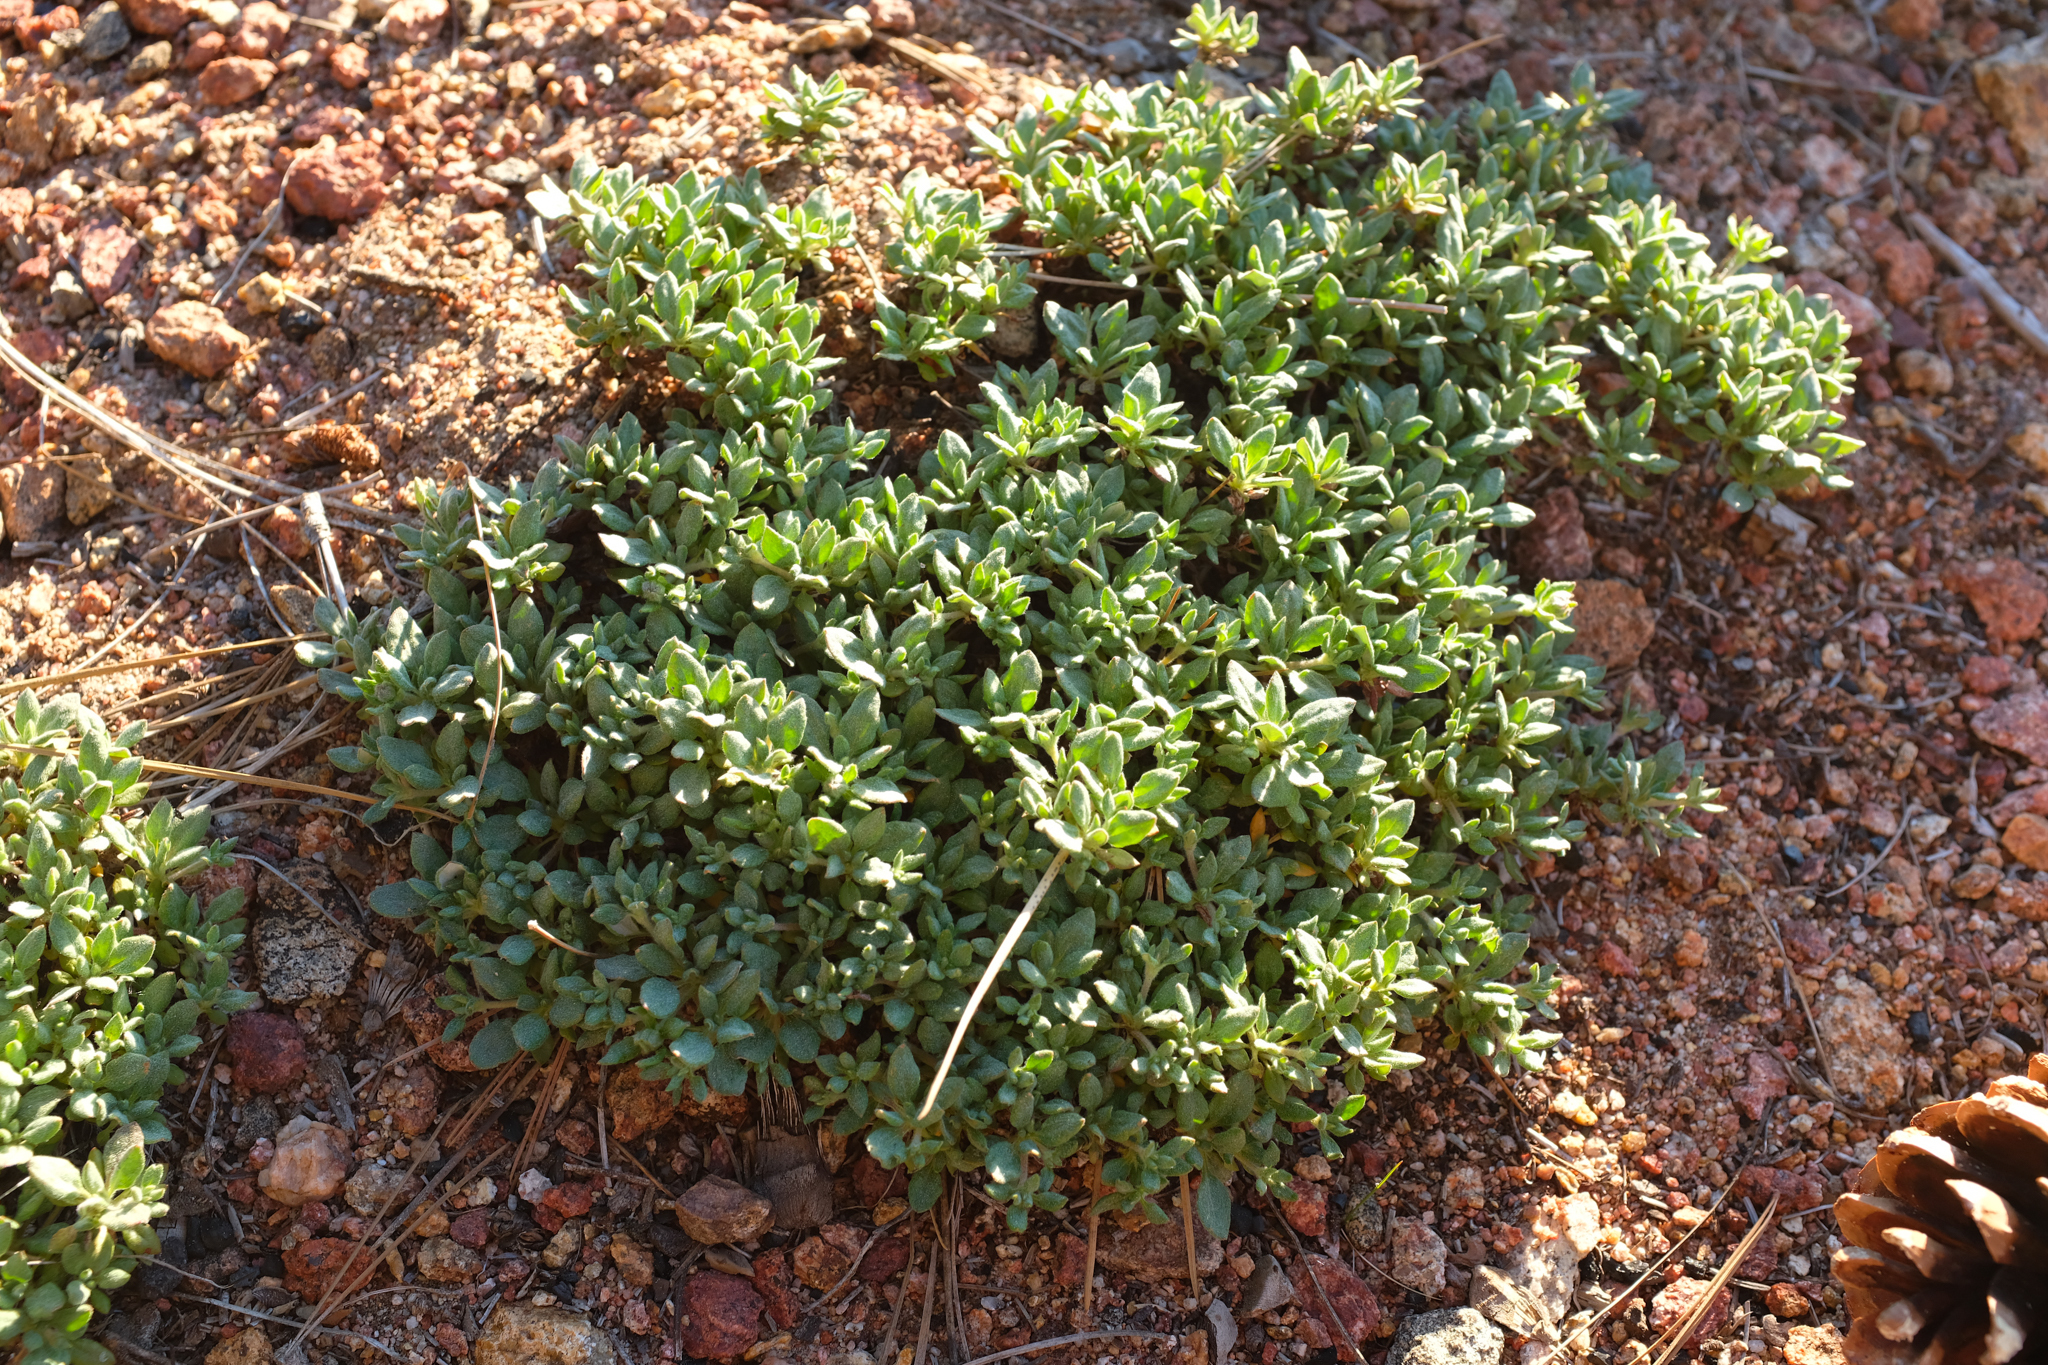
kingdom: Plantae
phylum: Tracheophyta
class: Magnoliopsida
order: Caryophyllales
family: Polygonaceae
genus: Eriogonum
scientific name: Eriogonum twisselmanii
